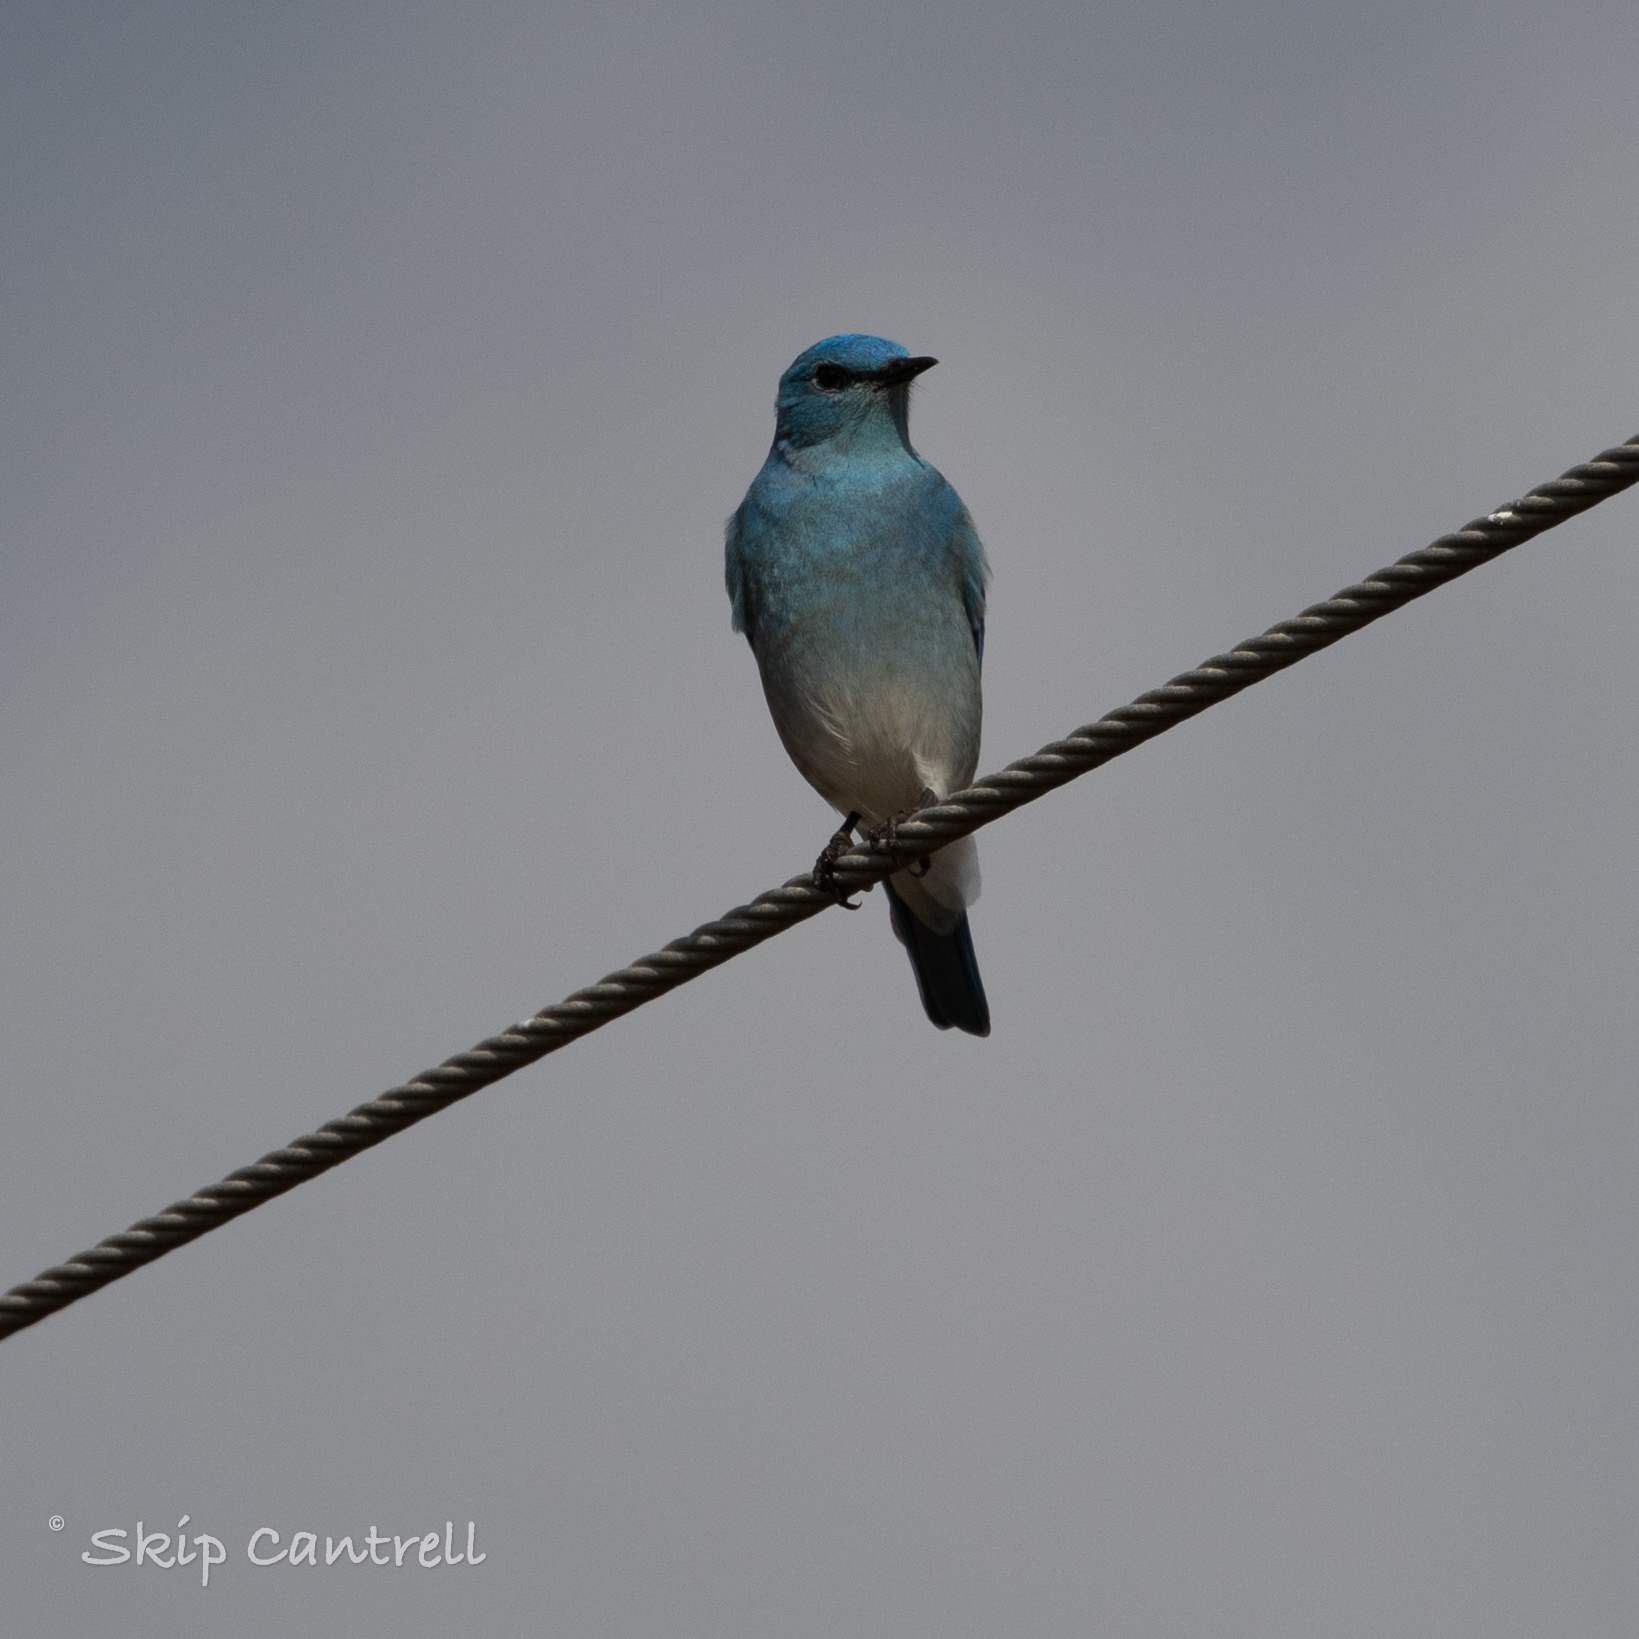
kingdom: Animalia
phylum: Chordata
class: Aves
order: Passeriformes
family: Turdidae
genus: Sialia
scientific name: Sialia currucoides
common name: Mountain bluebird
